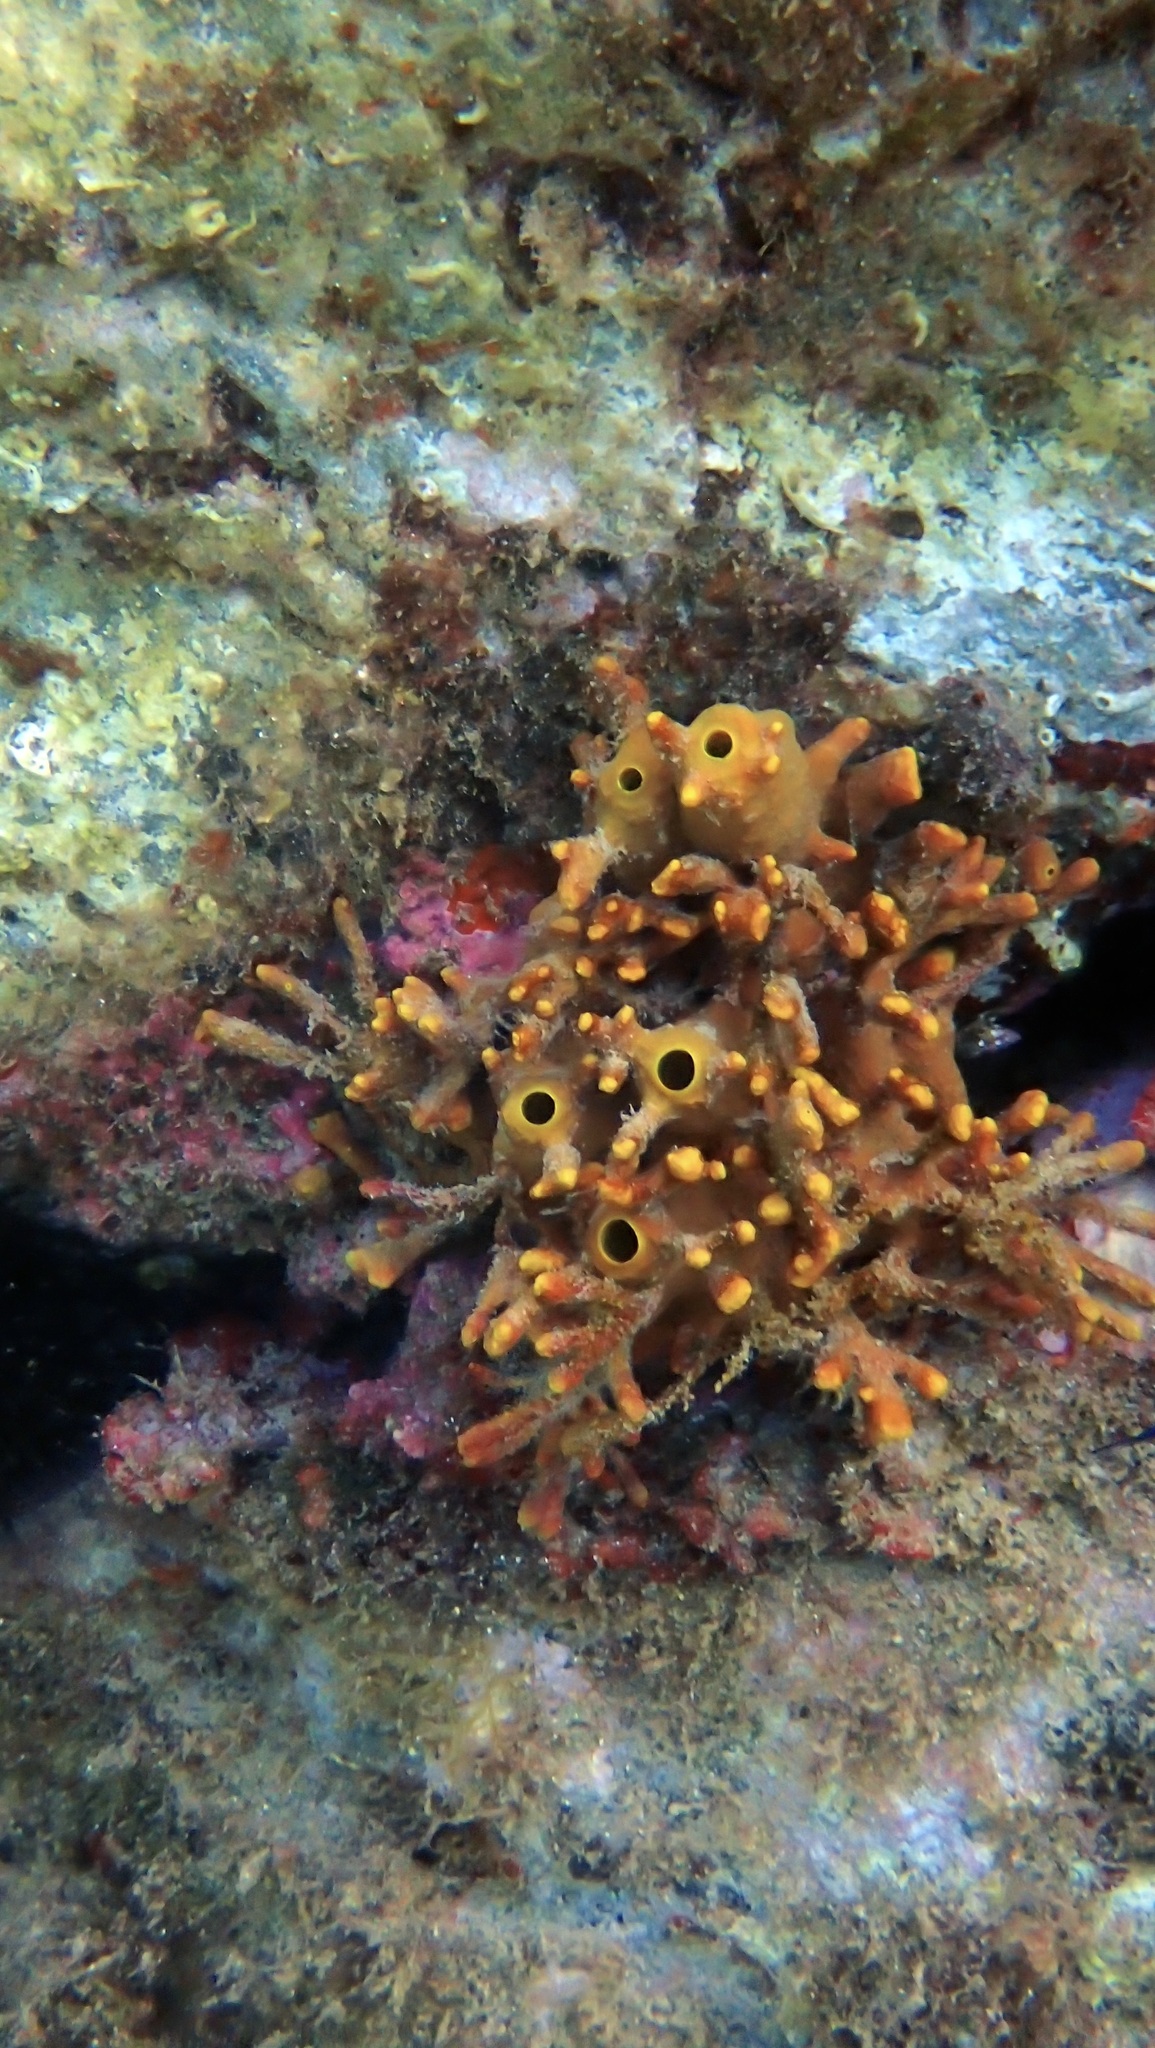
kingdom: Animalia
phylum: Porifera
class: Demospongiae
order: Verongiida
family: Aplysinidae
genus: Aplysina
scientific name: Aplysina aerophoba
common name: Aureate sponge
